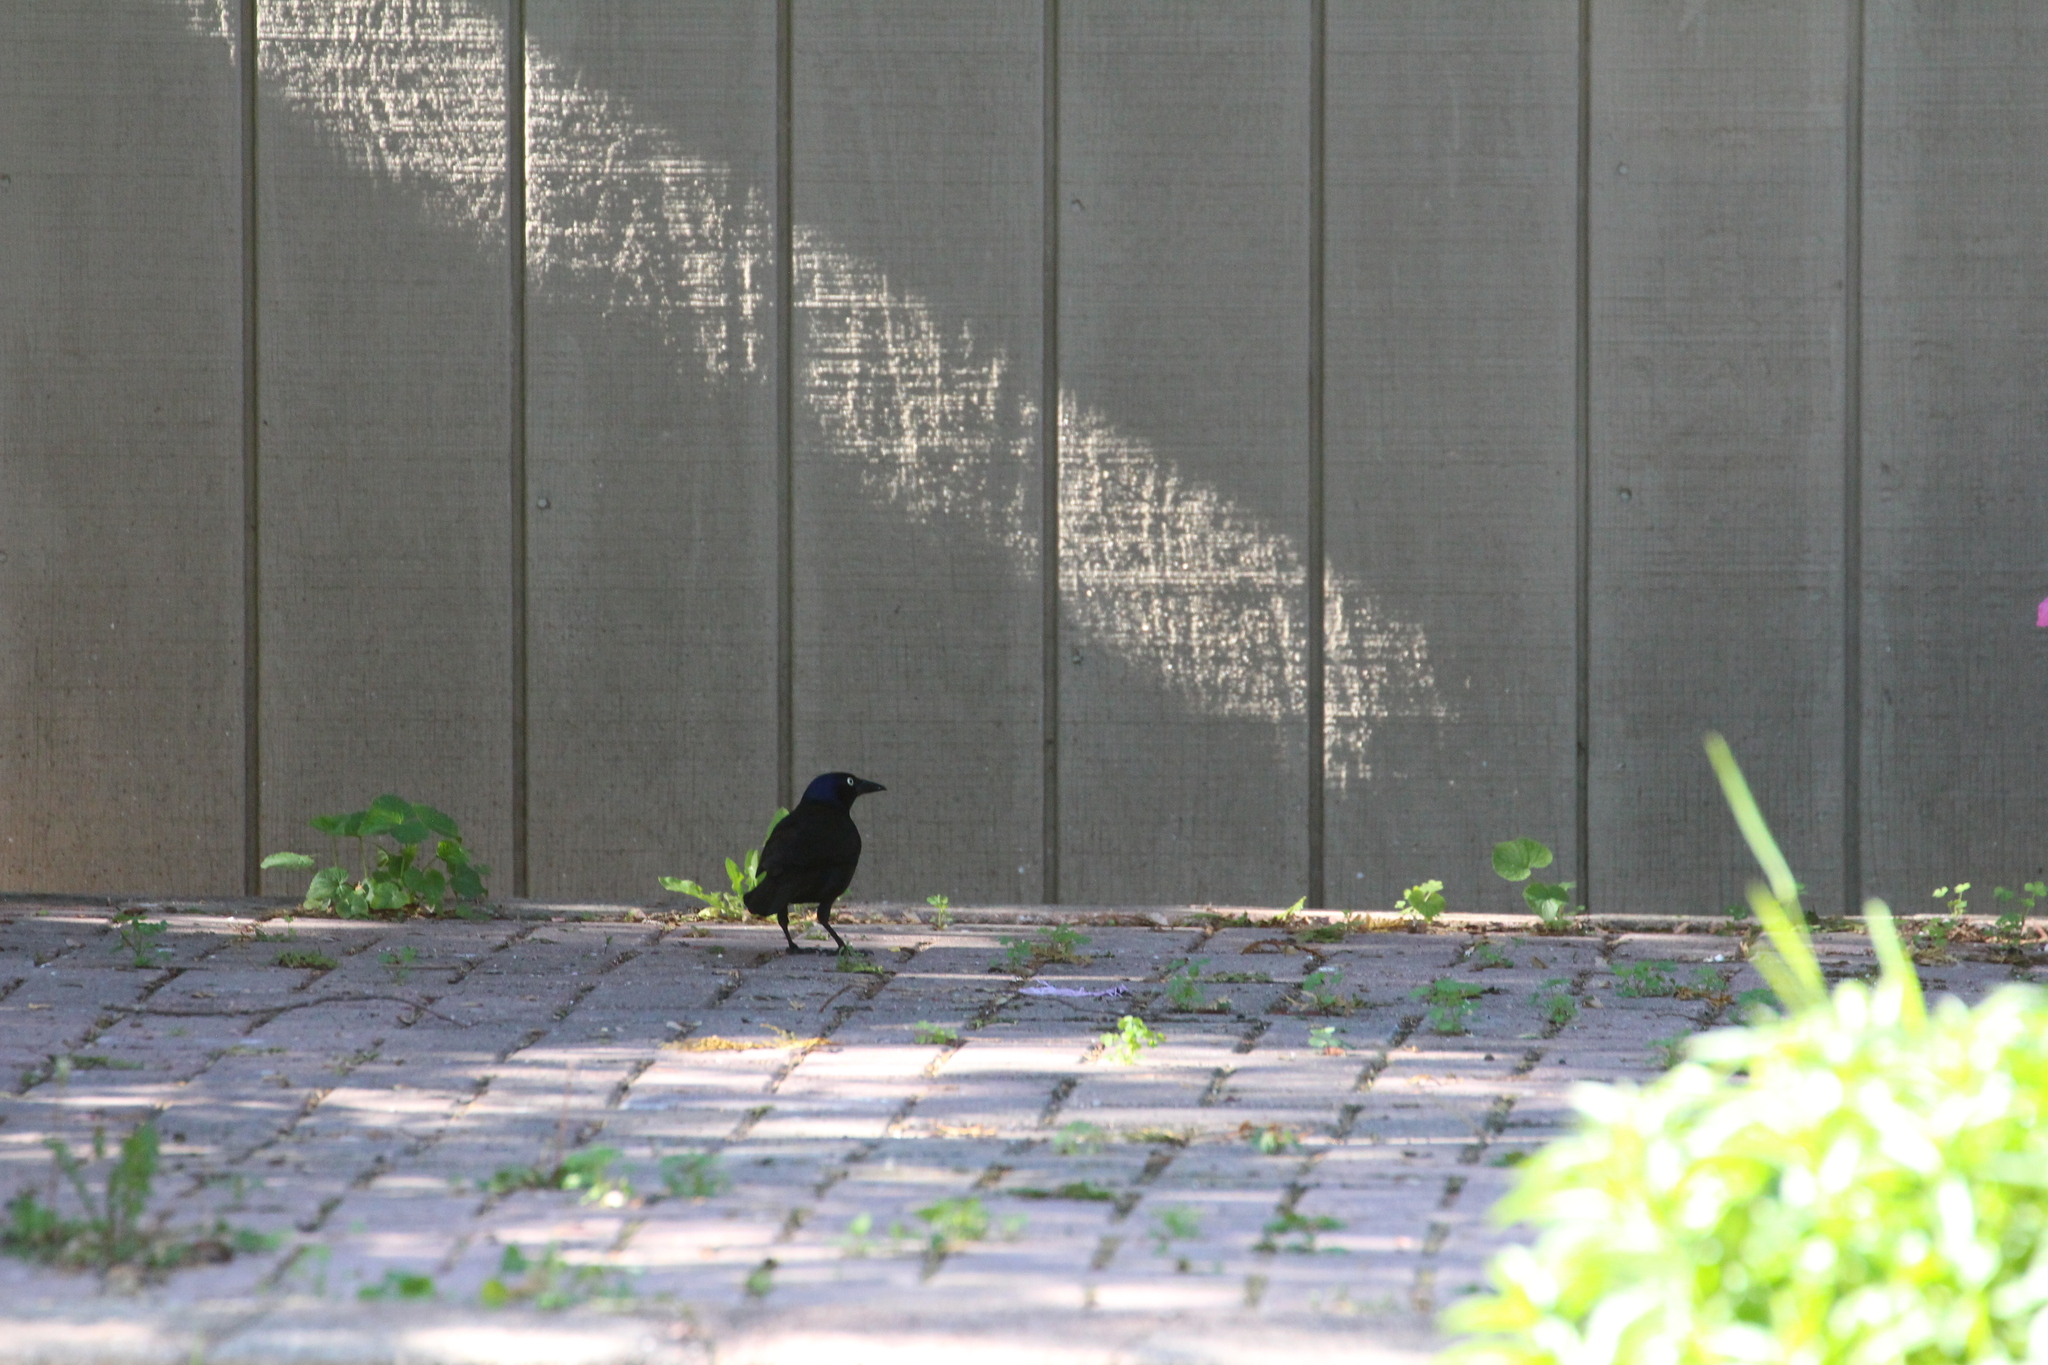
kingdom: Animalia
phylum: Chordata
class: Aves
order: Passeriformes
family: Icteridae
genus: Quiscalus
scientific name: Quiscalus quiscula
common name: Common grackle
